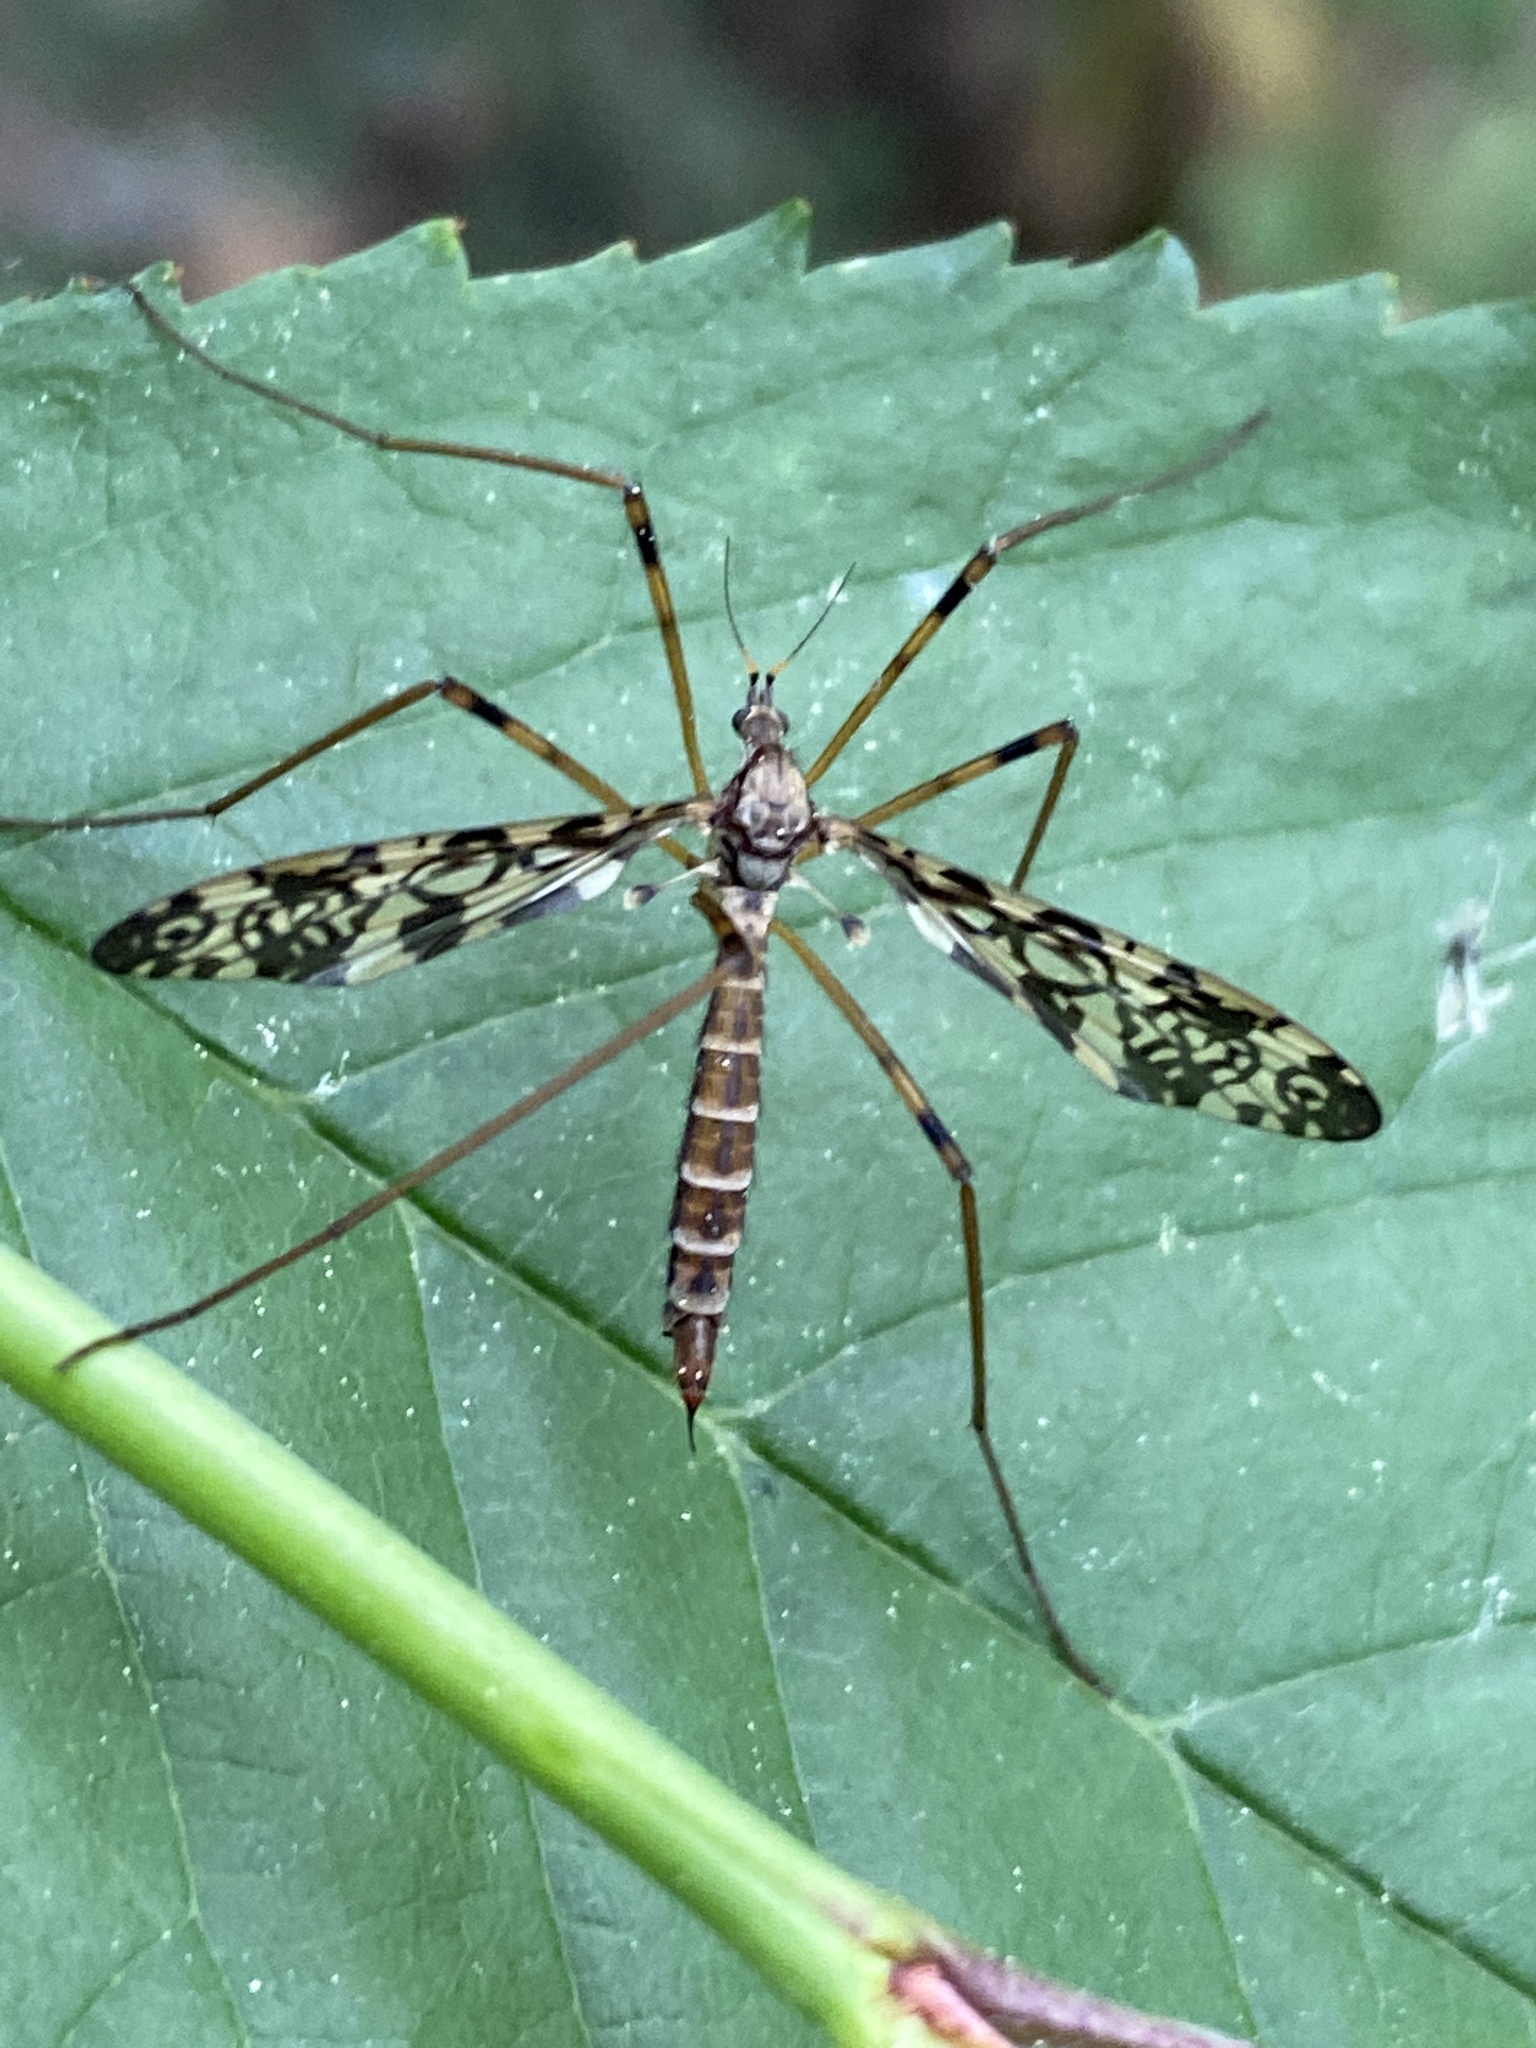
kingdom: Animalia
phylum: Arthropoda
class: Insecta
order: Diptera
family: Limoniidae
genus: Epiphragma
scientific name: Epiphragma ocellare
